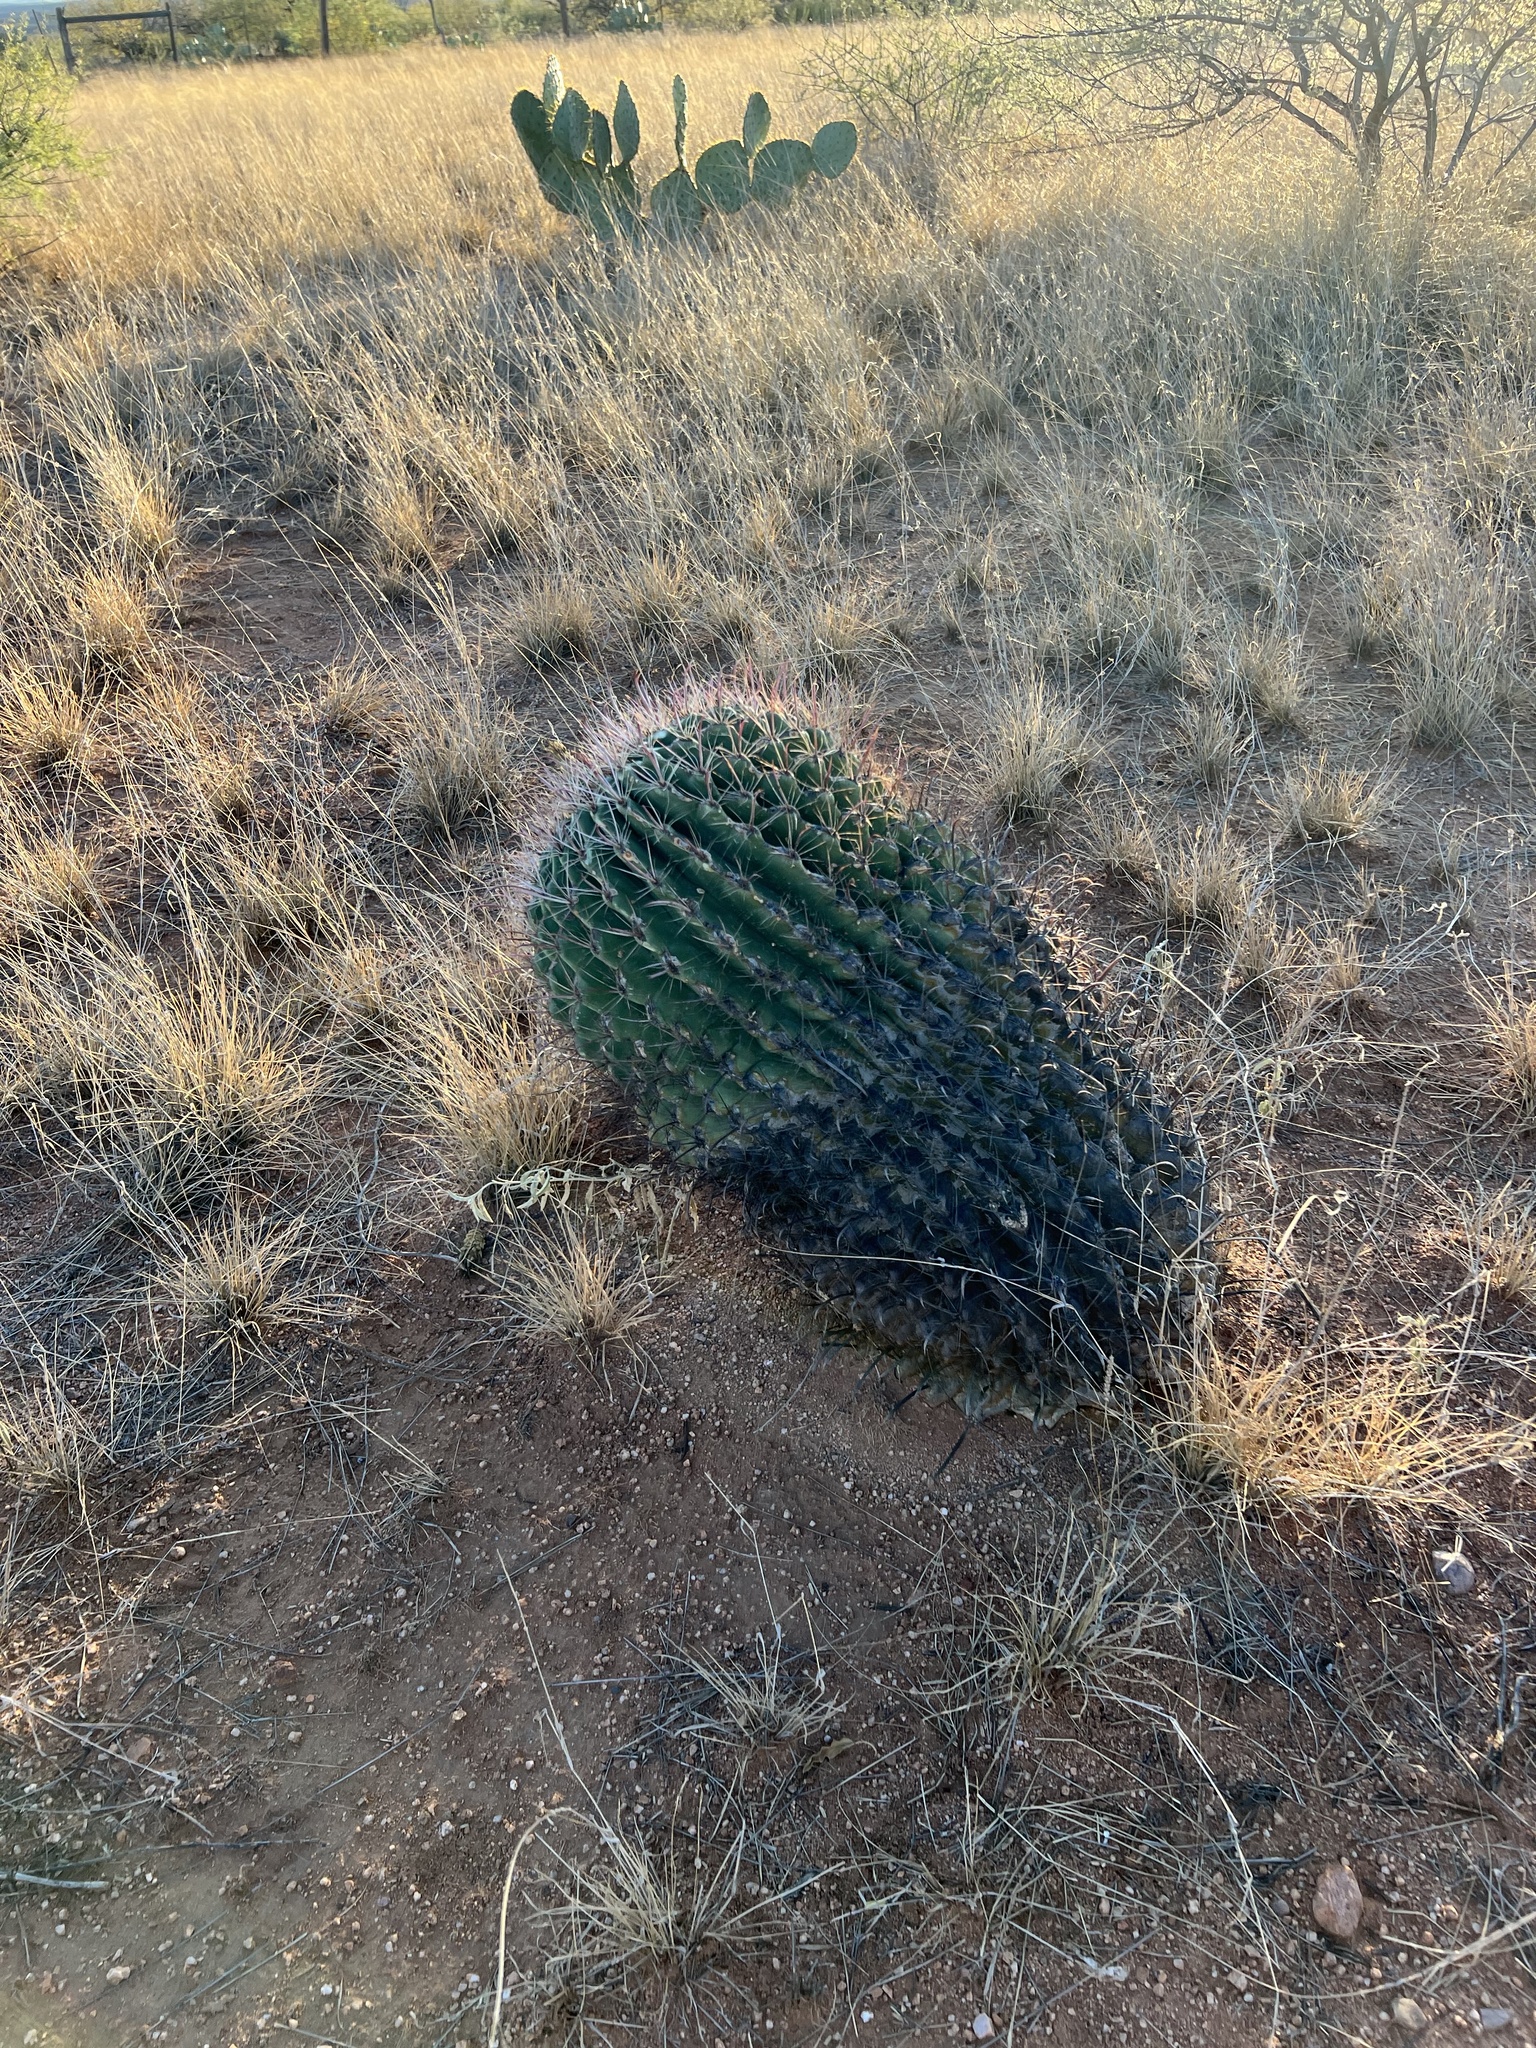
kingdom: Plantae
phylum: Tracheophyta
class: Magnoliopsida
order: Caryophyllales
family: Cactaceae
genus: Ferocactus
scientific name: Ferocactus wislizeni
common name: Candy barrel cactus
